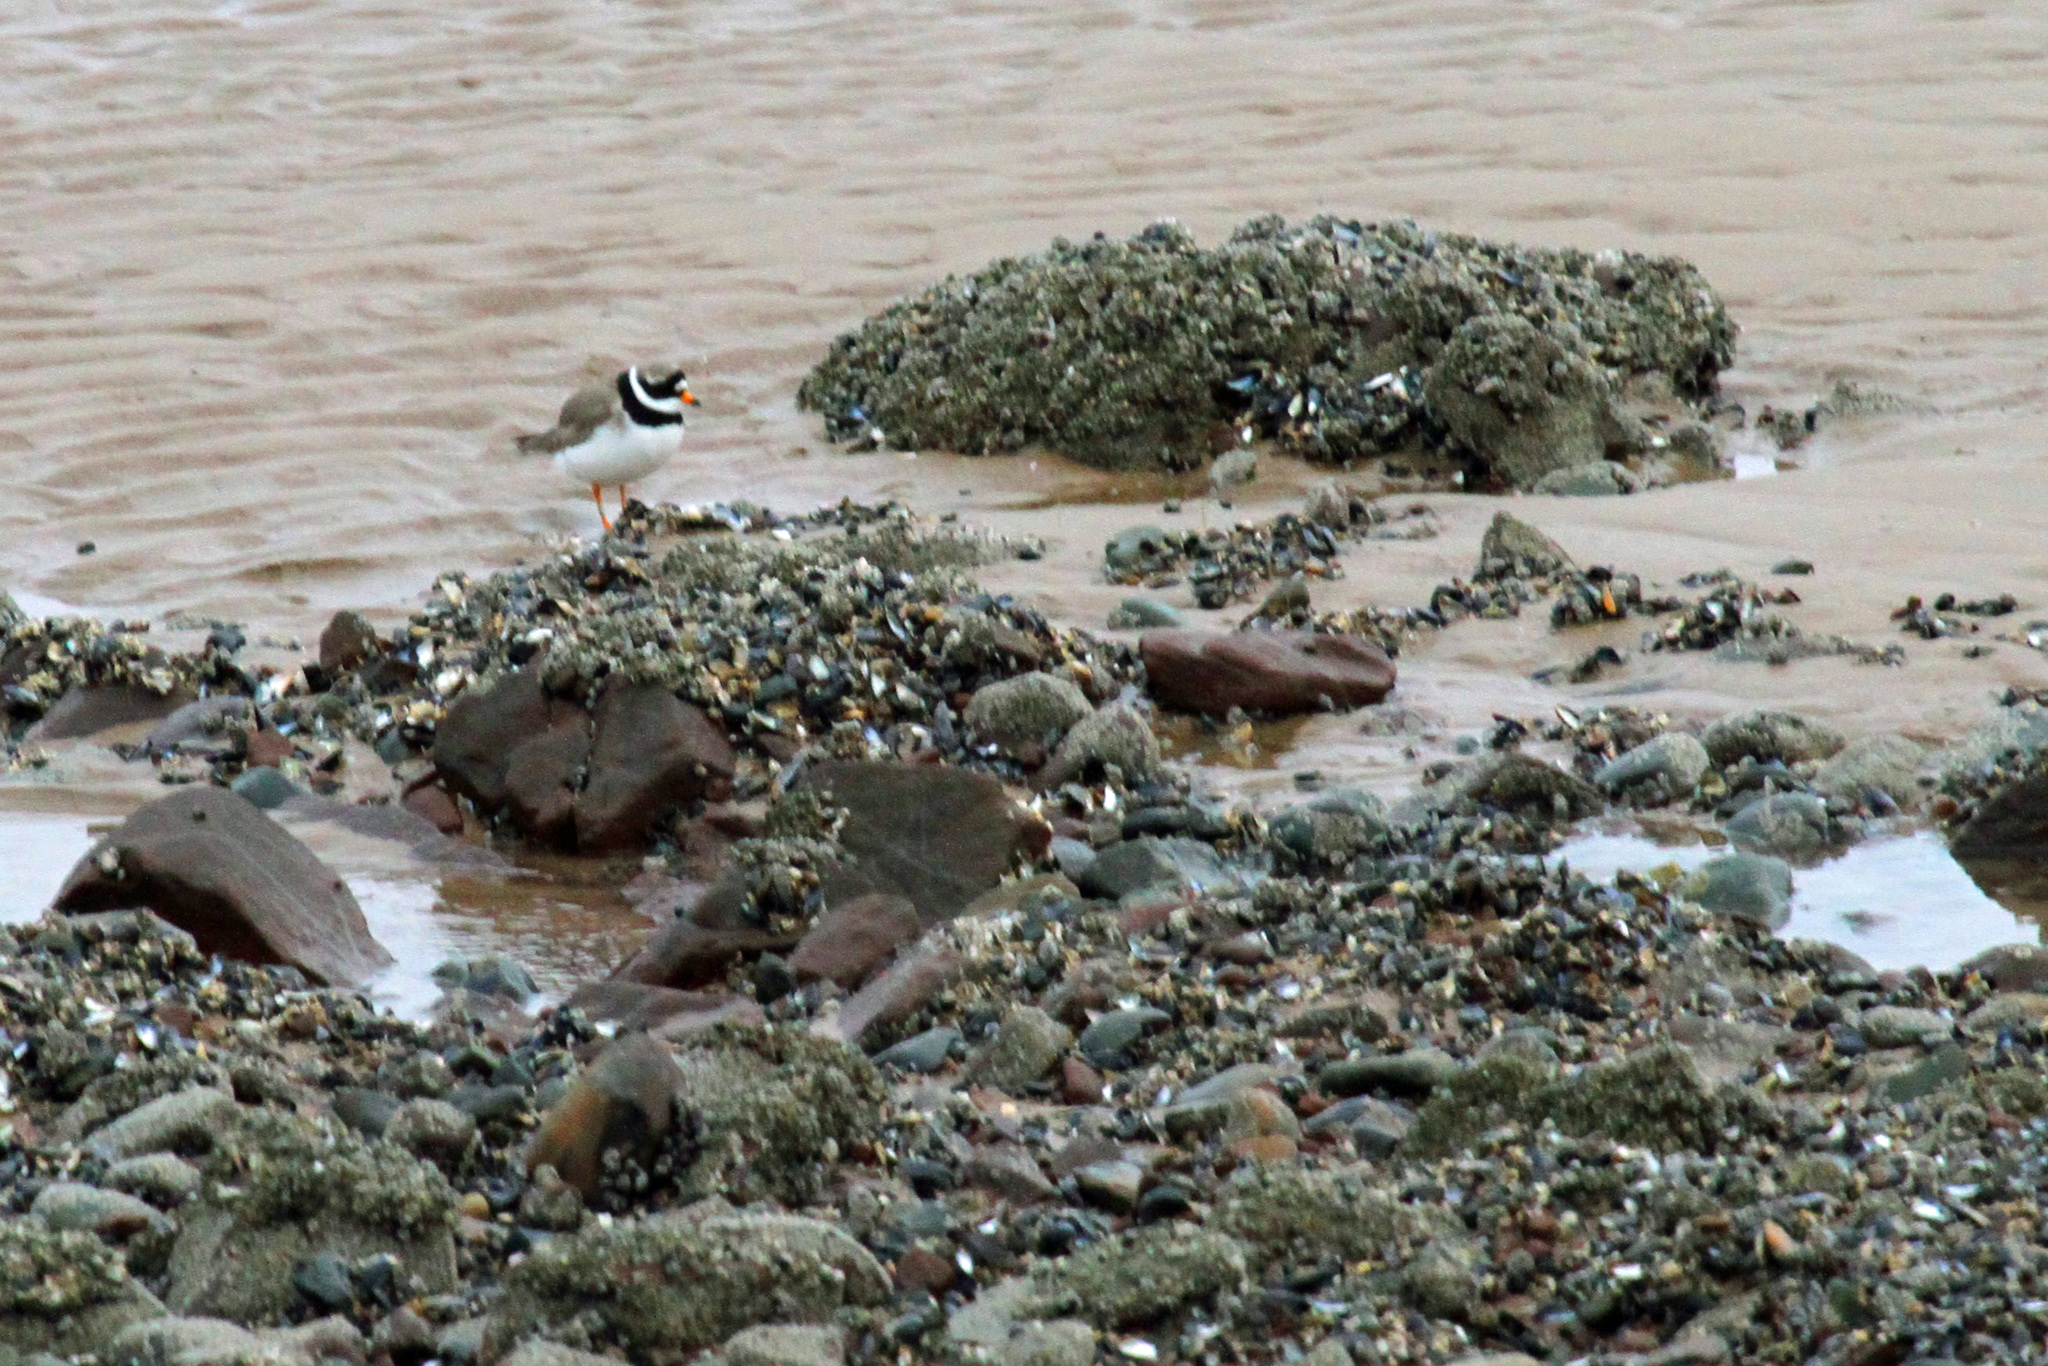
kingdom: Animalia
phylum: Chordata
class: Aves
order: Charadriiformes
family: Charadriidae
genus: Charadrius
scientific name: Charadrius hiaticula
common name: Common ringed plover
